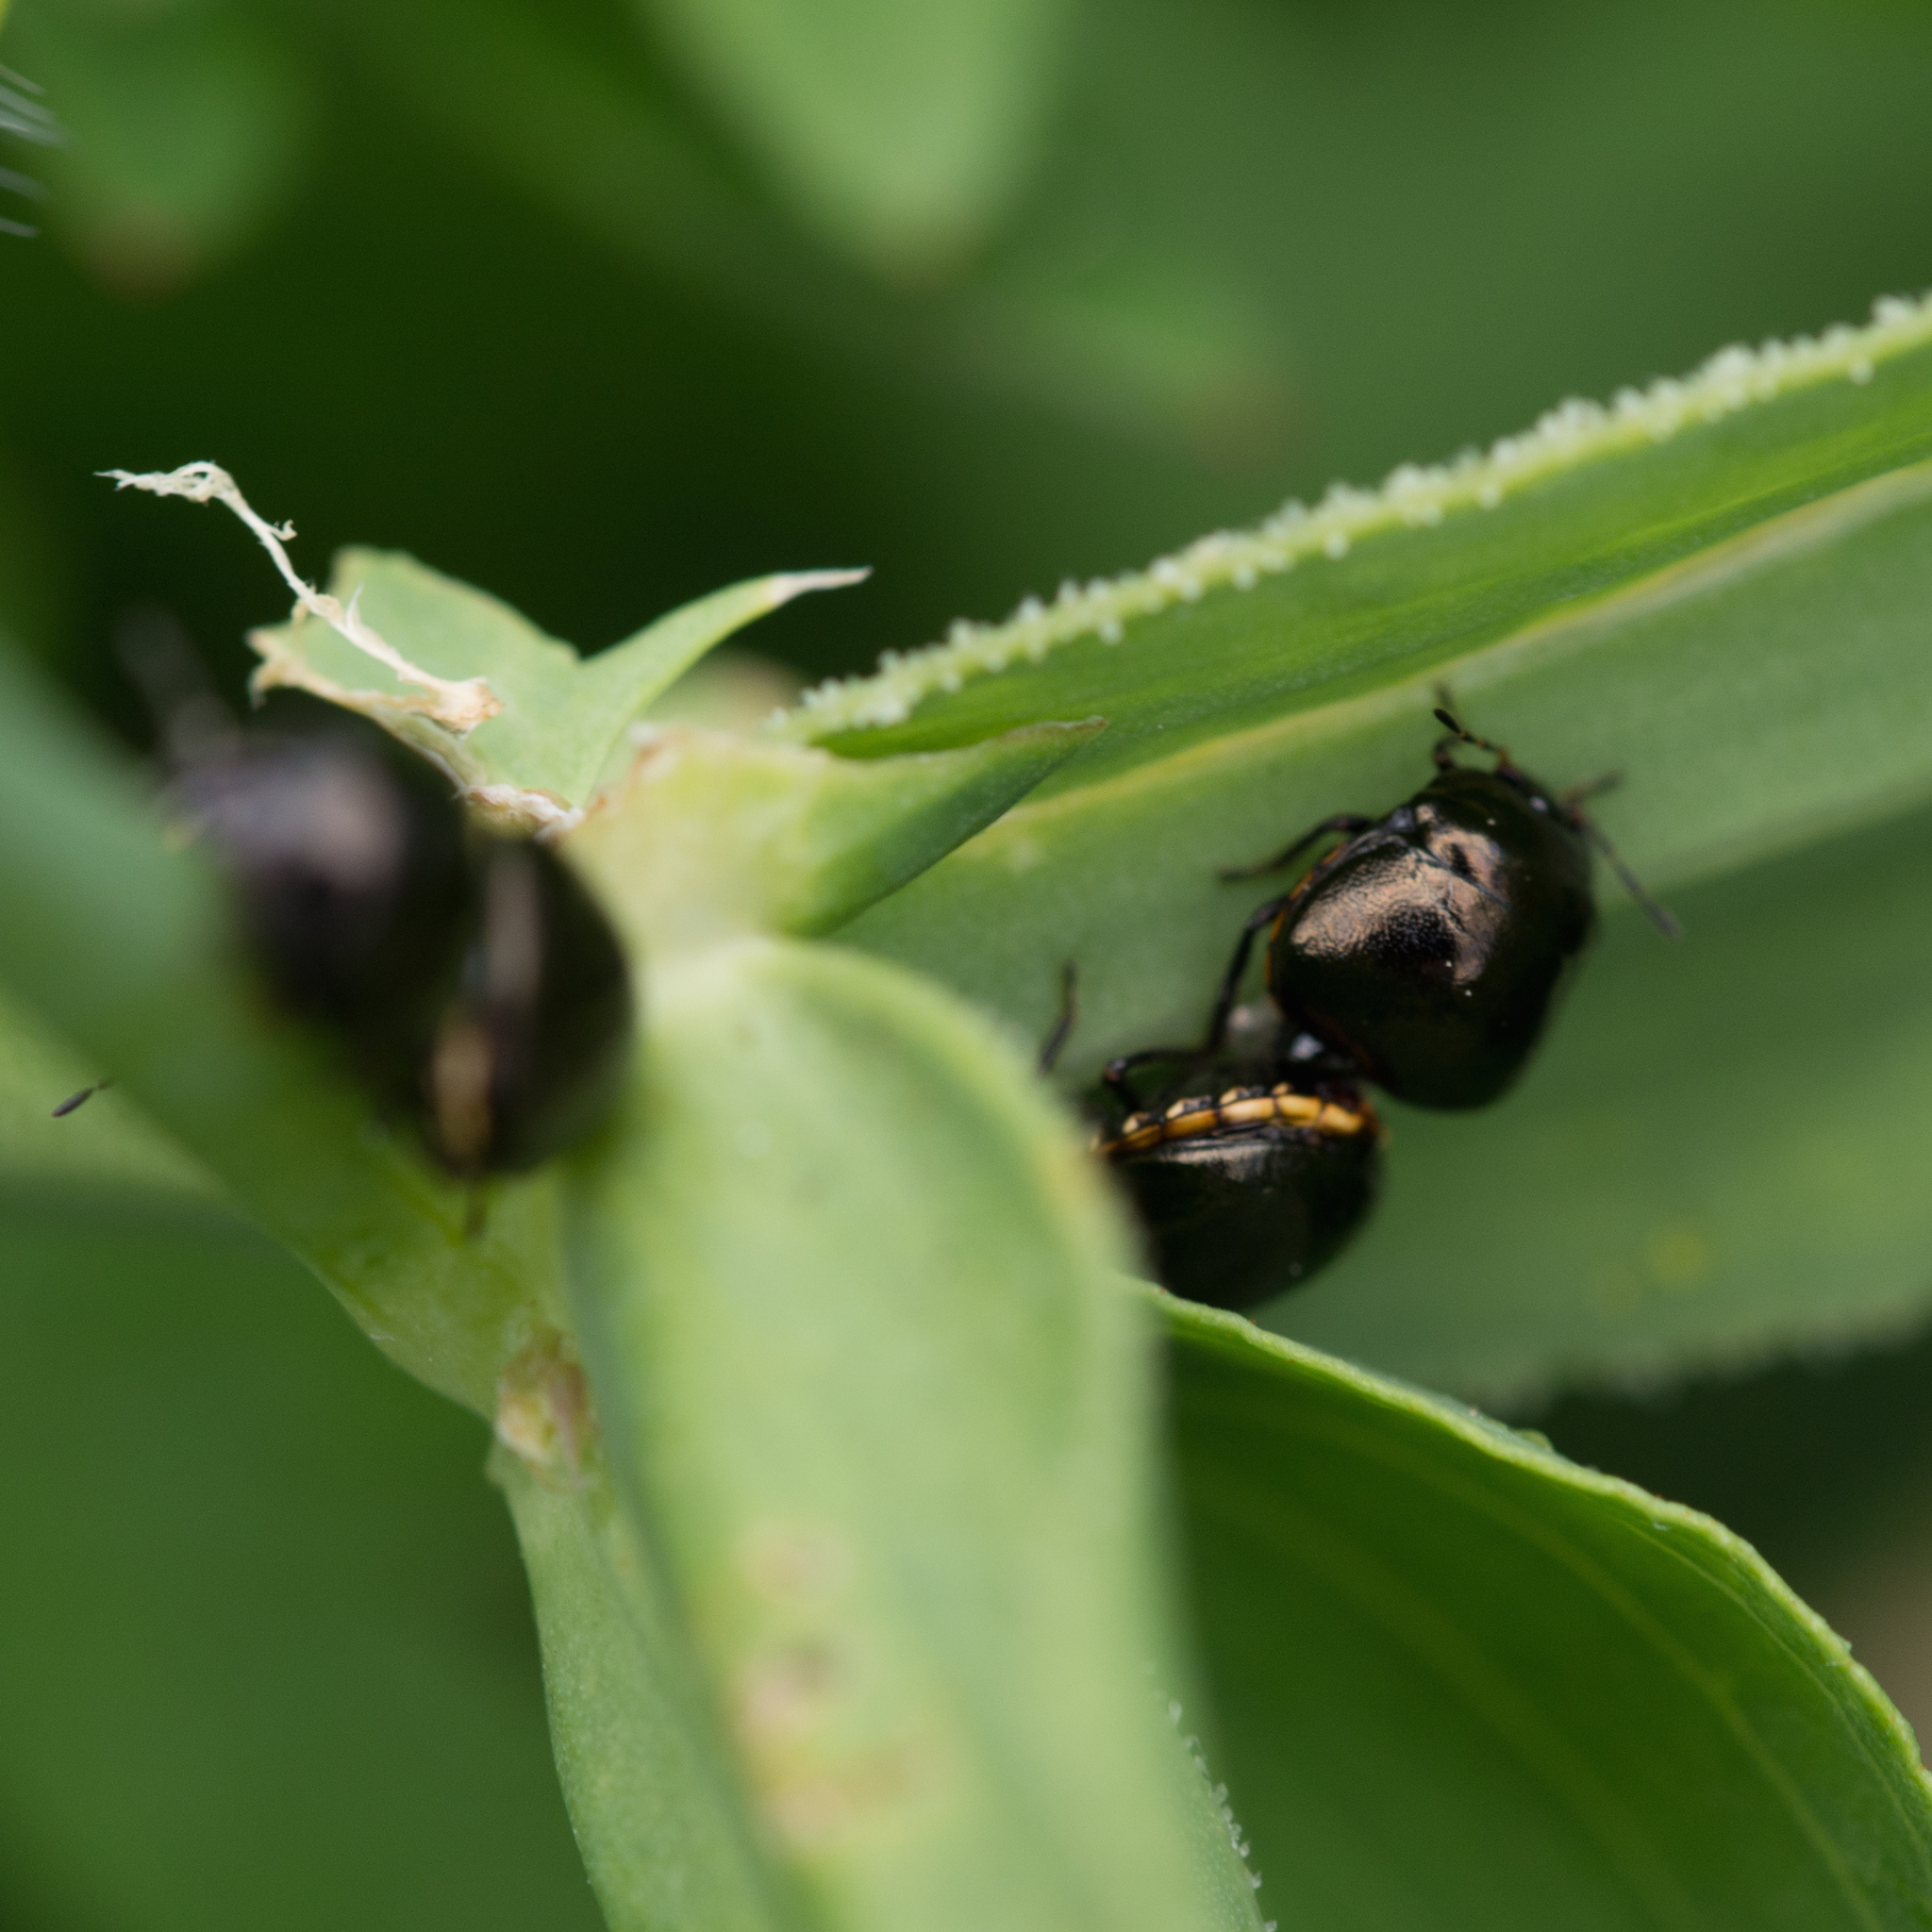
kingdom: Animalia
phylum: Arthropoda
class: Insecta
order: Hemiptera
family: Plataspidae
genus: Coptosoma
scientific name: Coptosoma scutellatum
